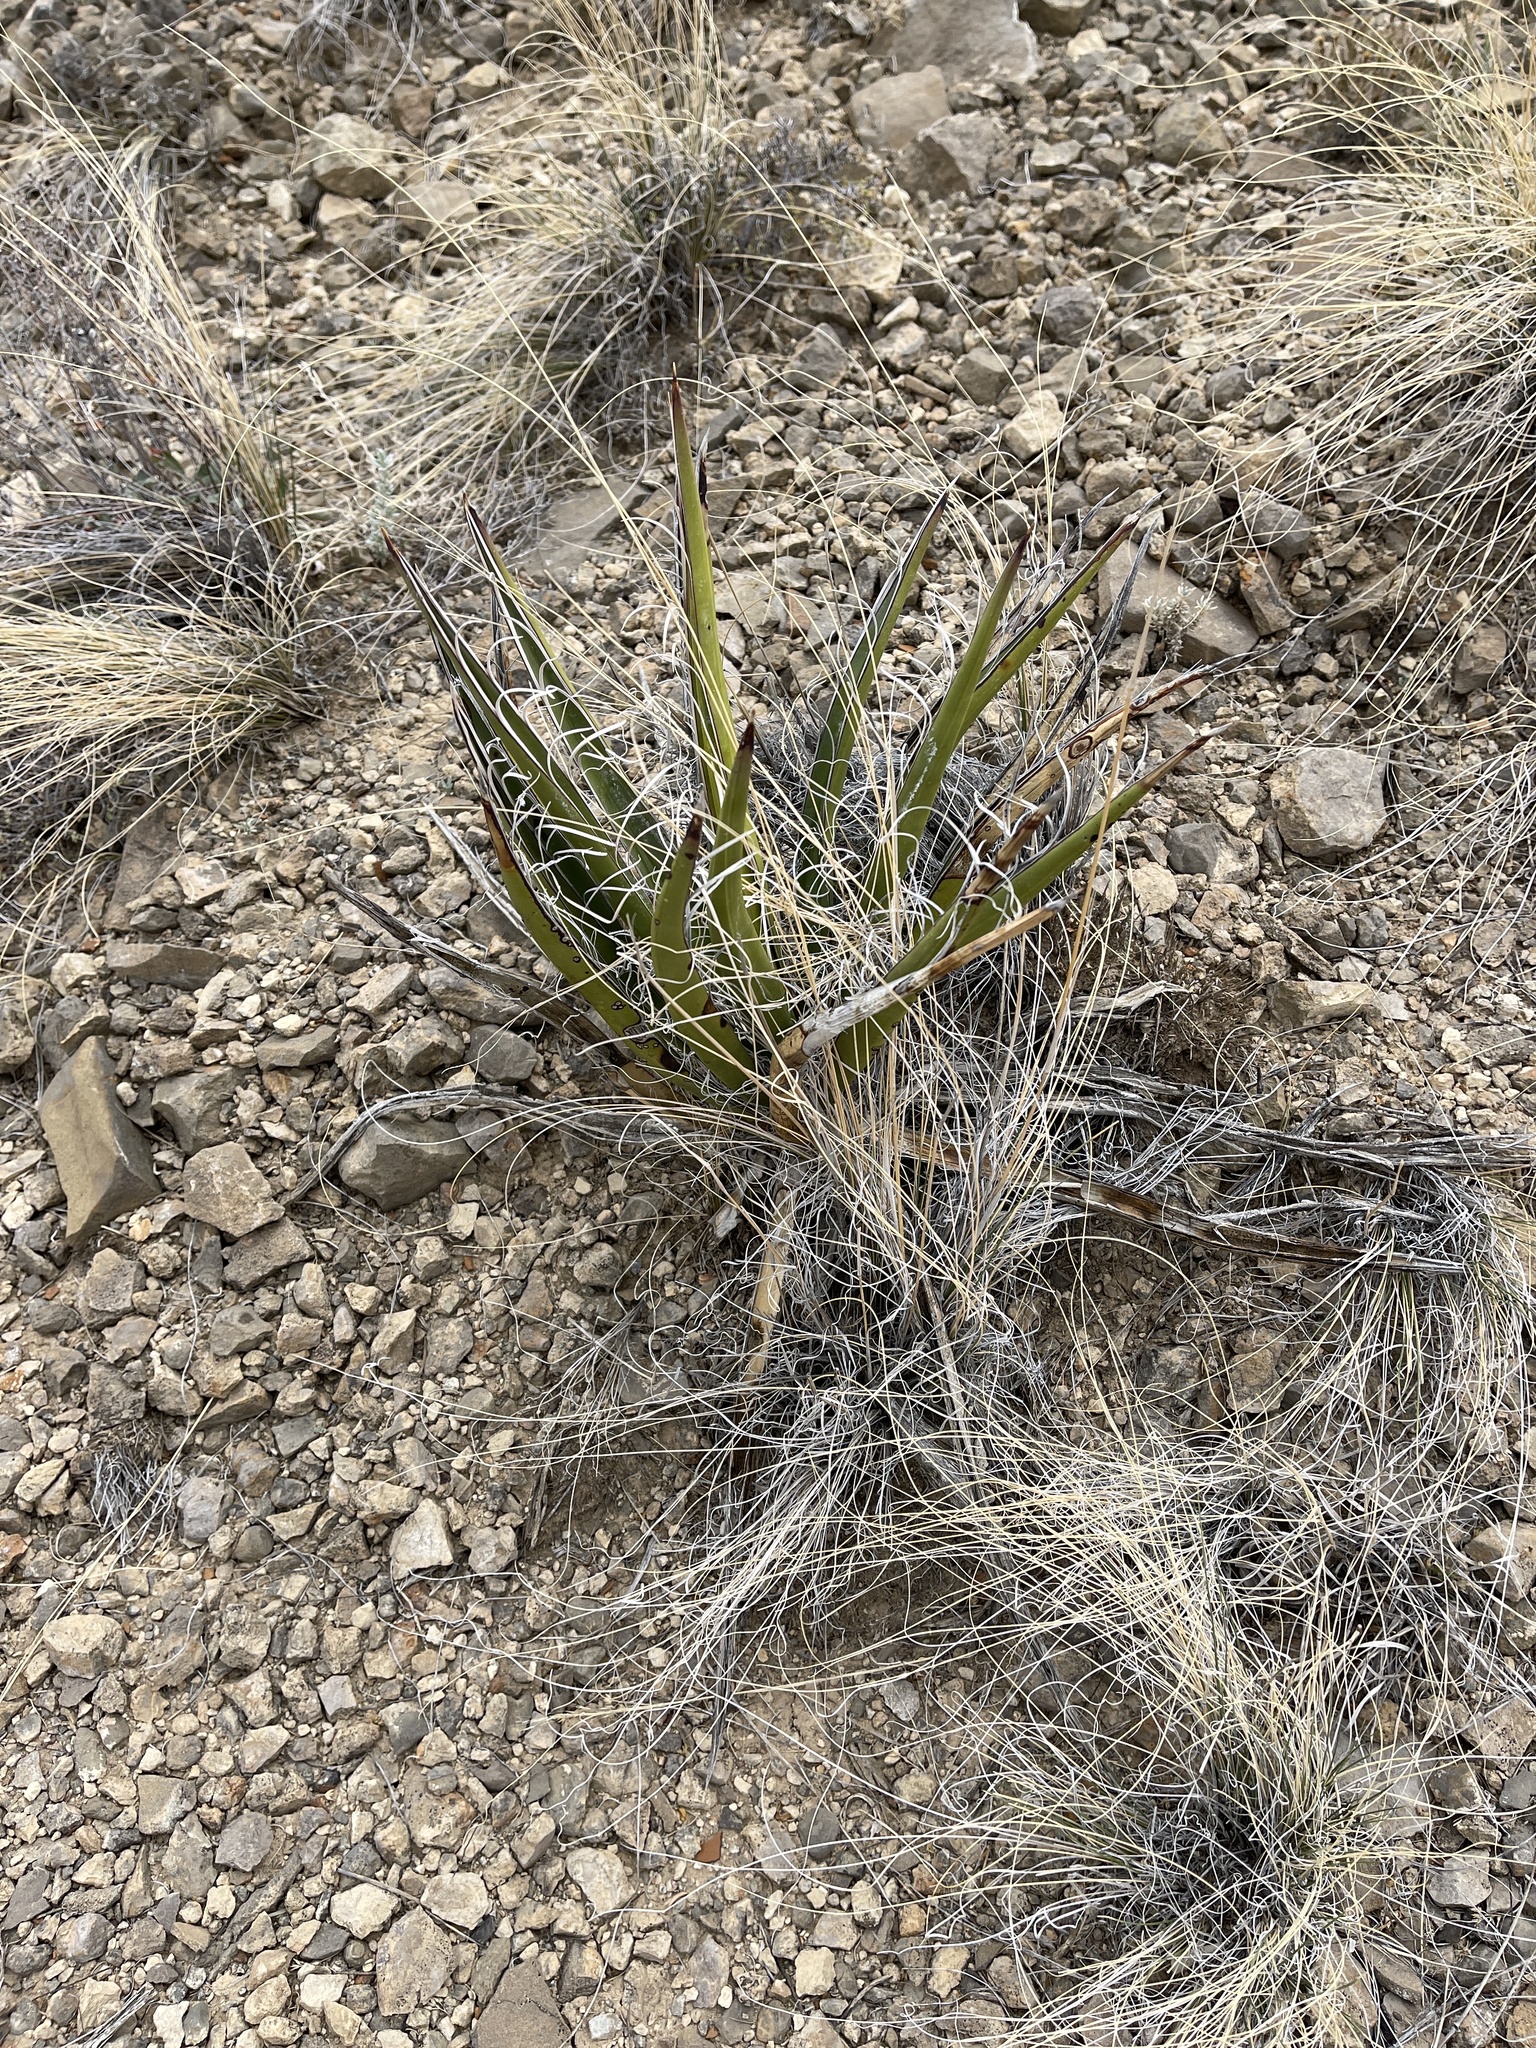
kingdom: Plantae
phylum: Tracheophyta
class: Liliopsida
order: Asparagales
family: Asparagaceae
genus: Yucca
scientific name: Yucca baccata
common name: Banana yucca
